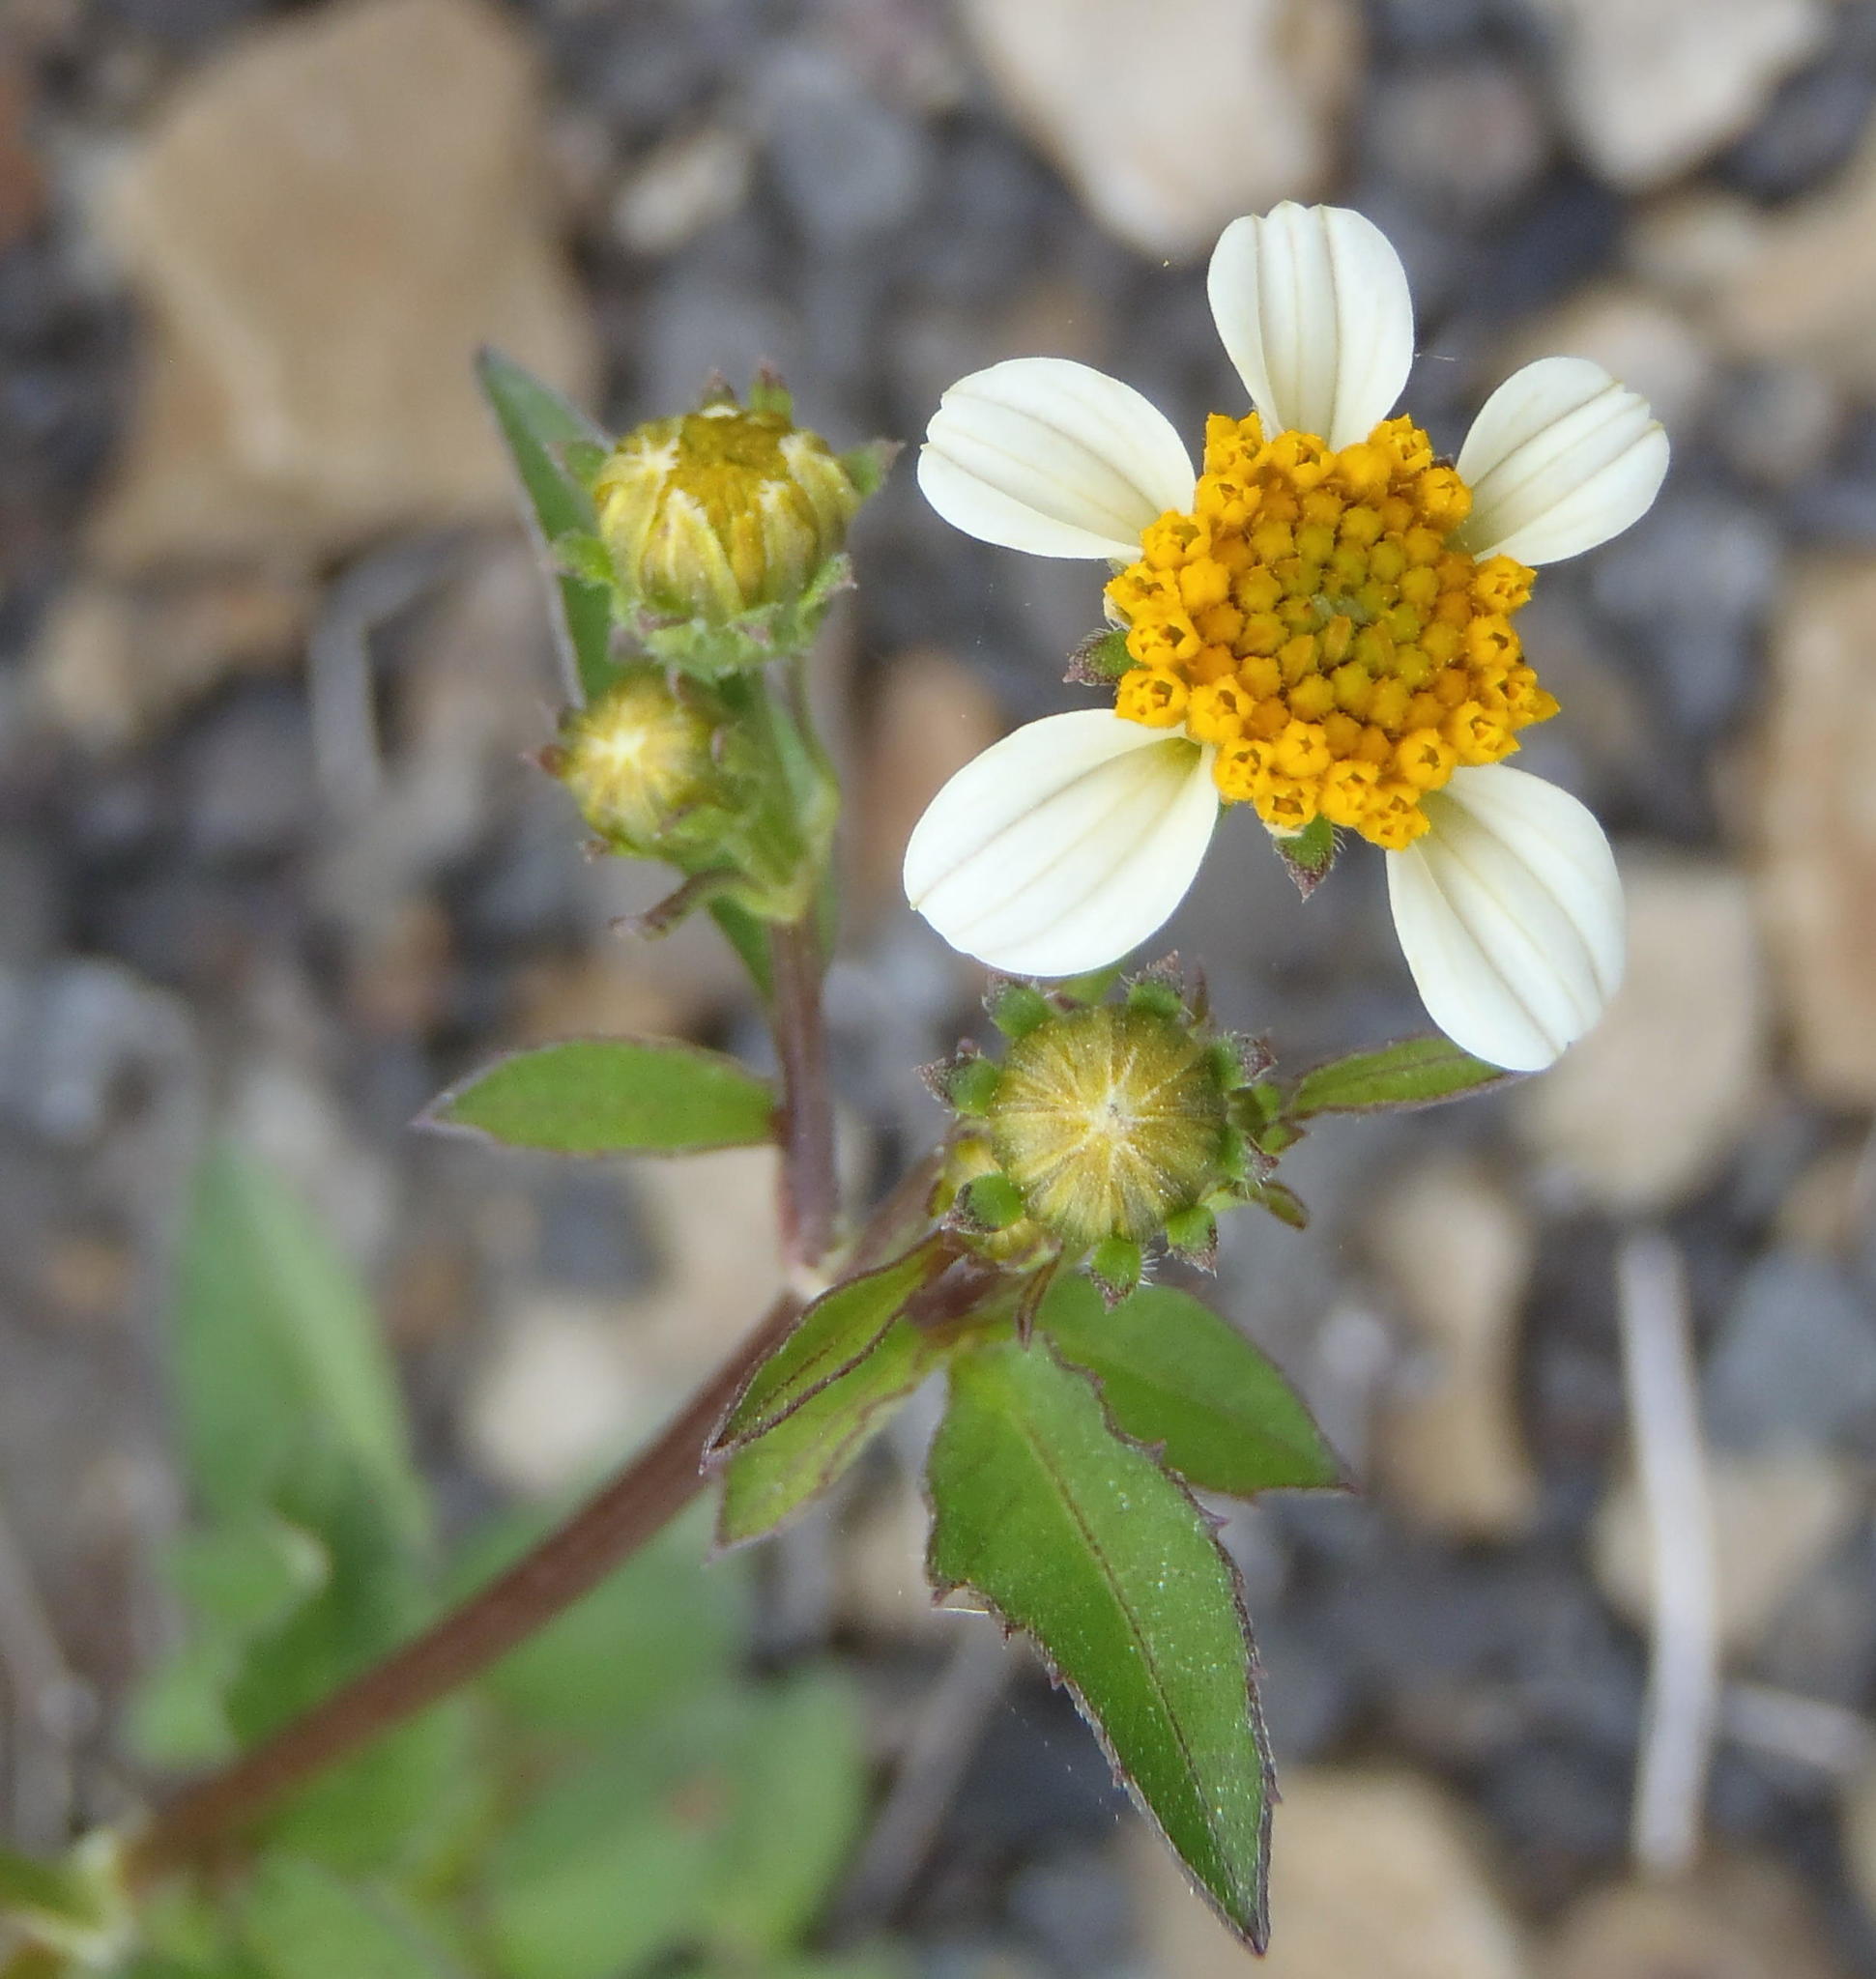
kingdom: Plantae
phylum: Tracheophyta
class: Magnoliopsida
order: Asterales
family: Asteraceae
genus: Bidens
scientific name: Bidens pilosa
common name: Black-jack
